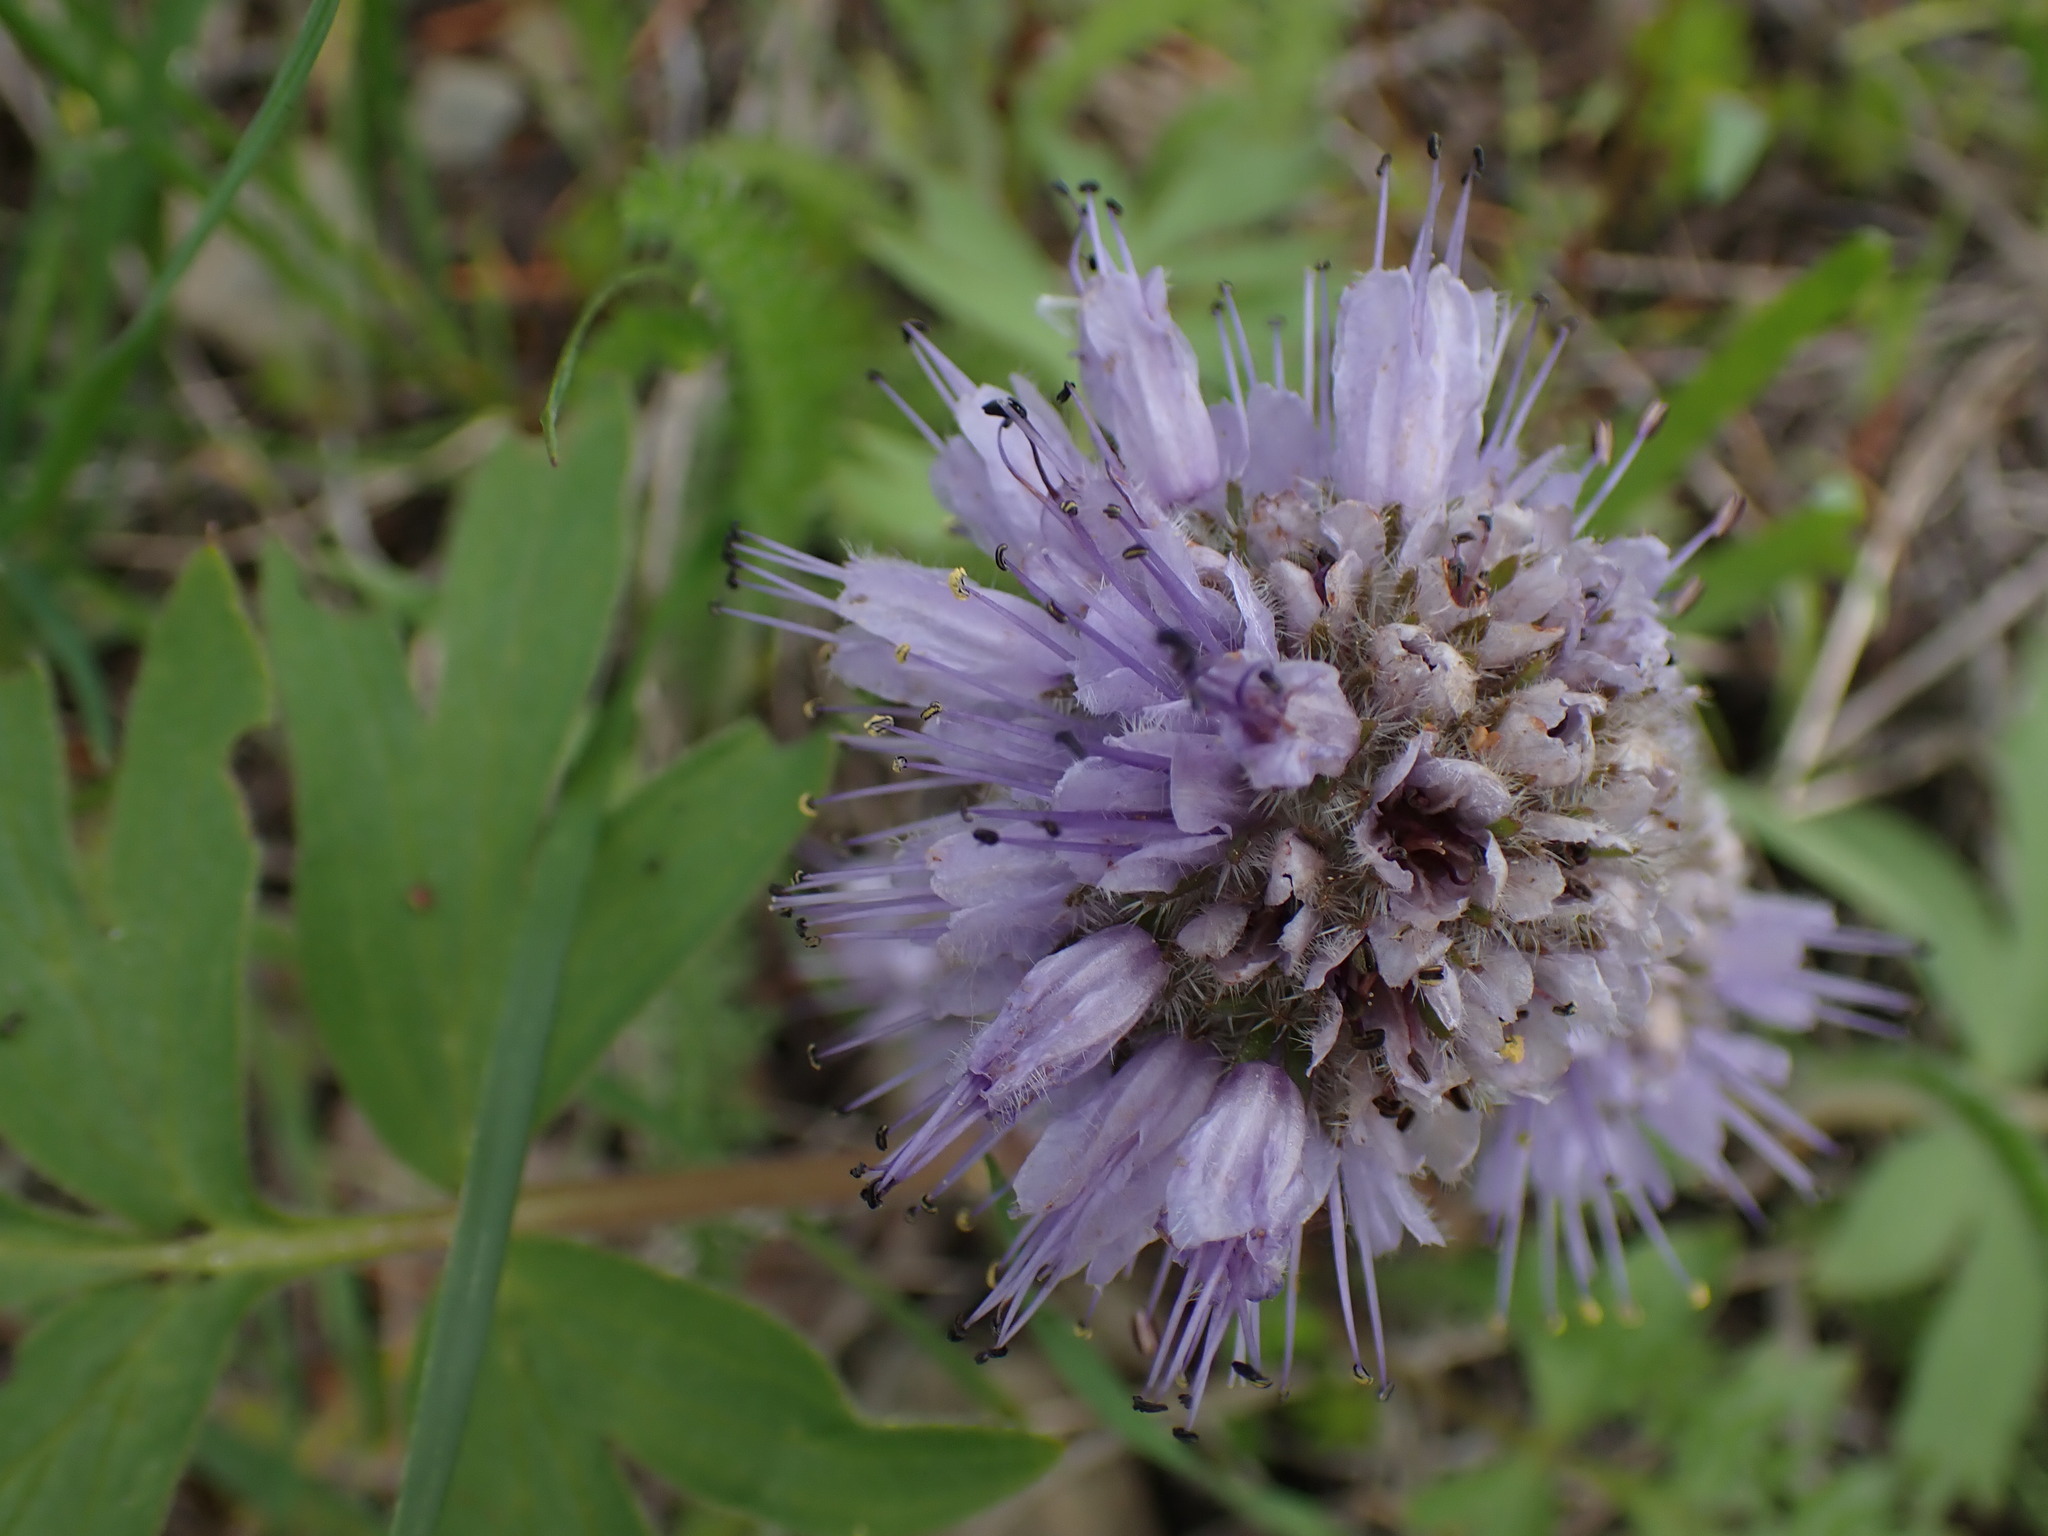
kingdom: Plantae
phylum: Tracheophyta
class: Magnoliopsida
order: Boraginales
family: Hydrophyllaceae
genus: Hydrophyllum
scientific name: Hydrophyllum capitatum
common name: Woollen-breeches
